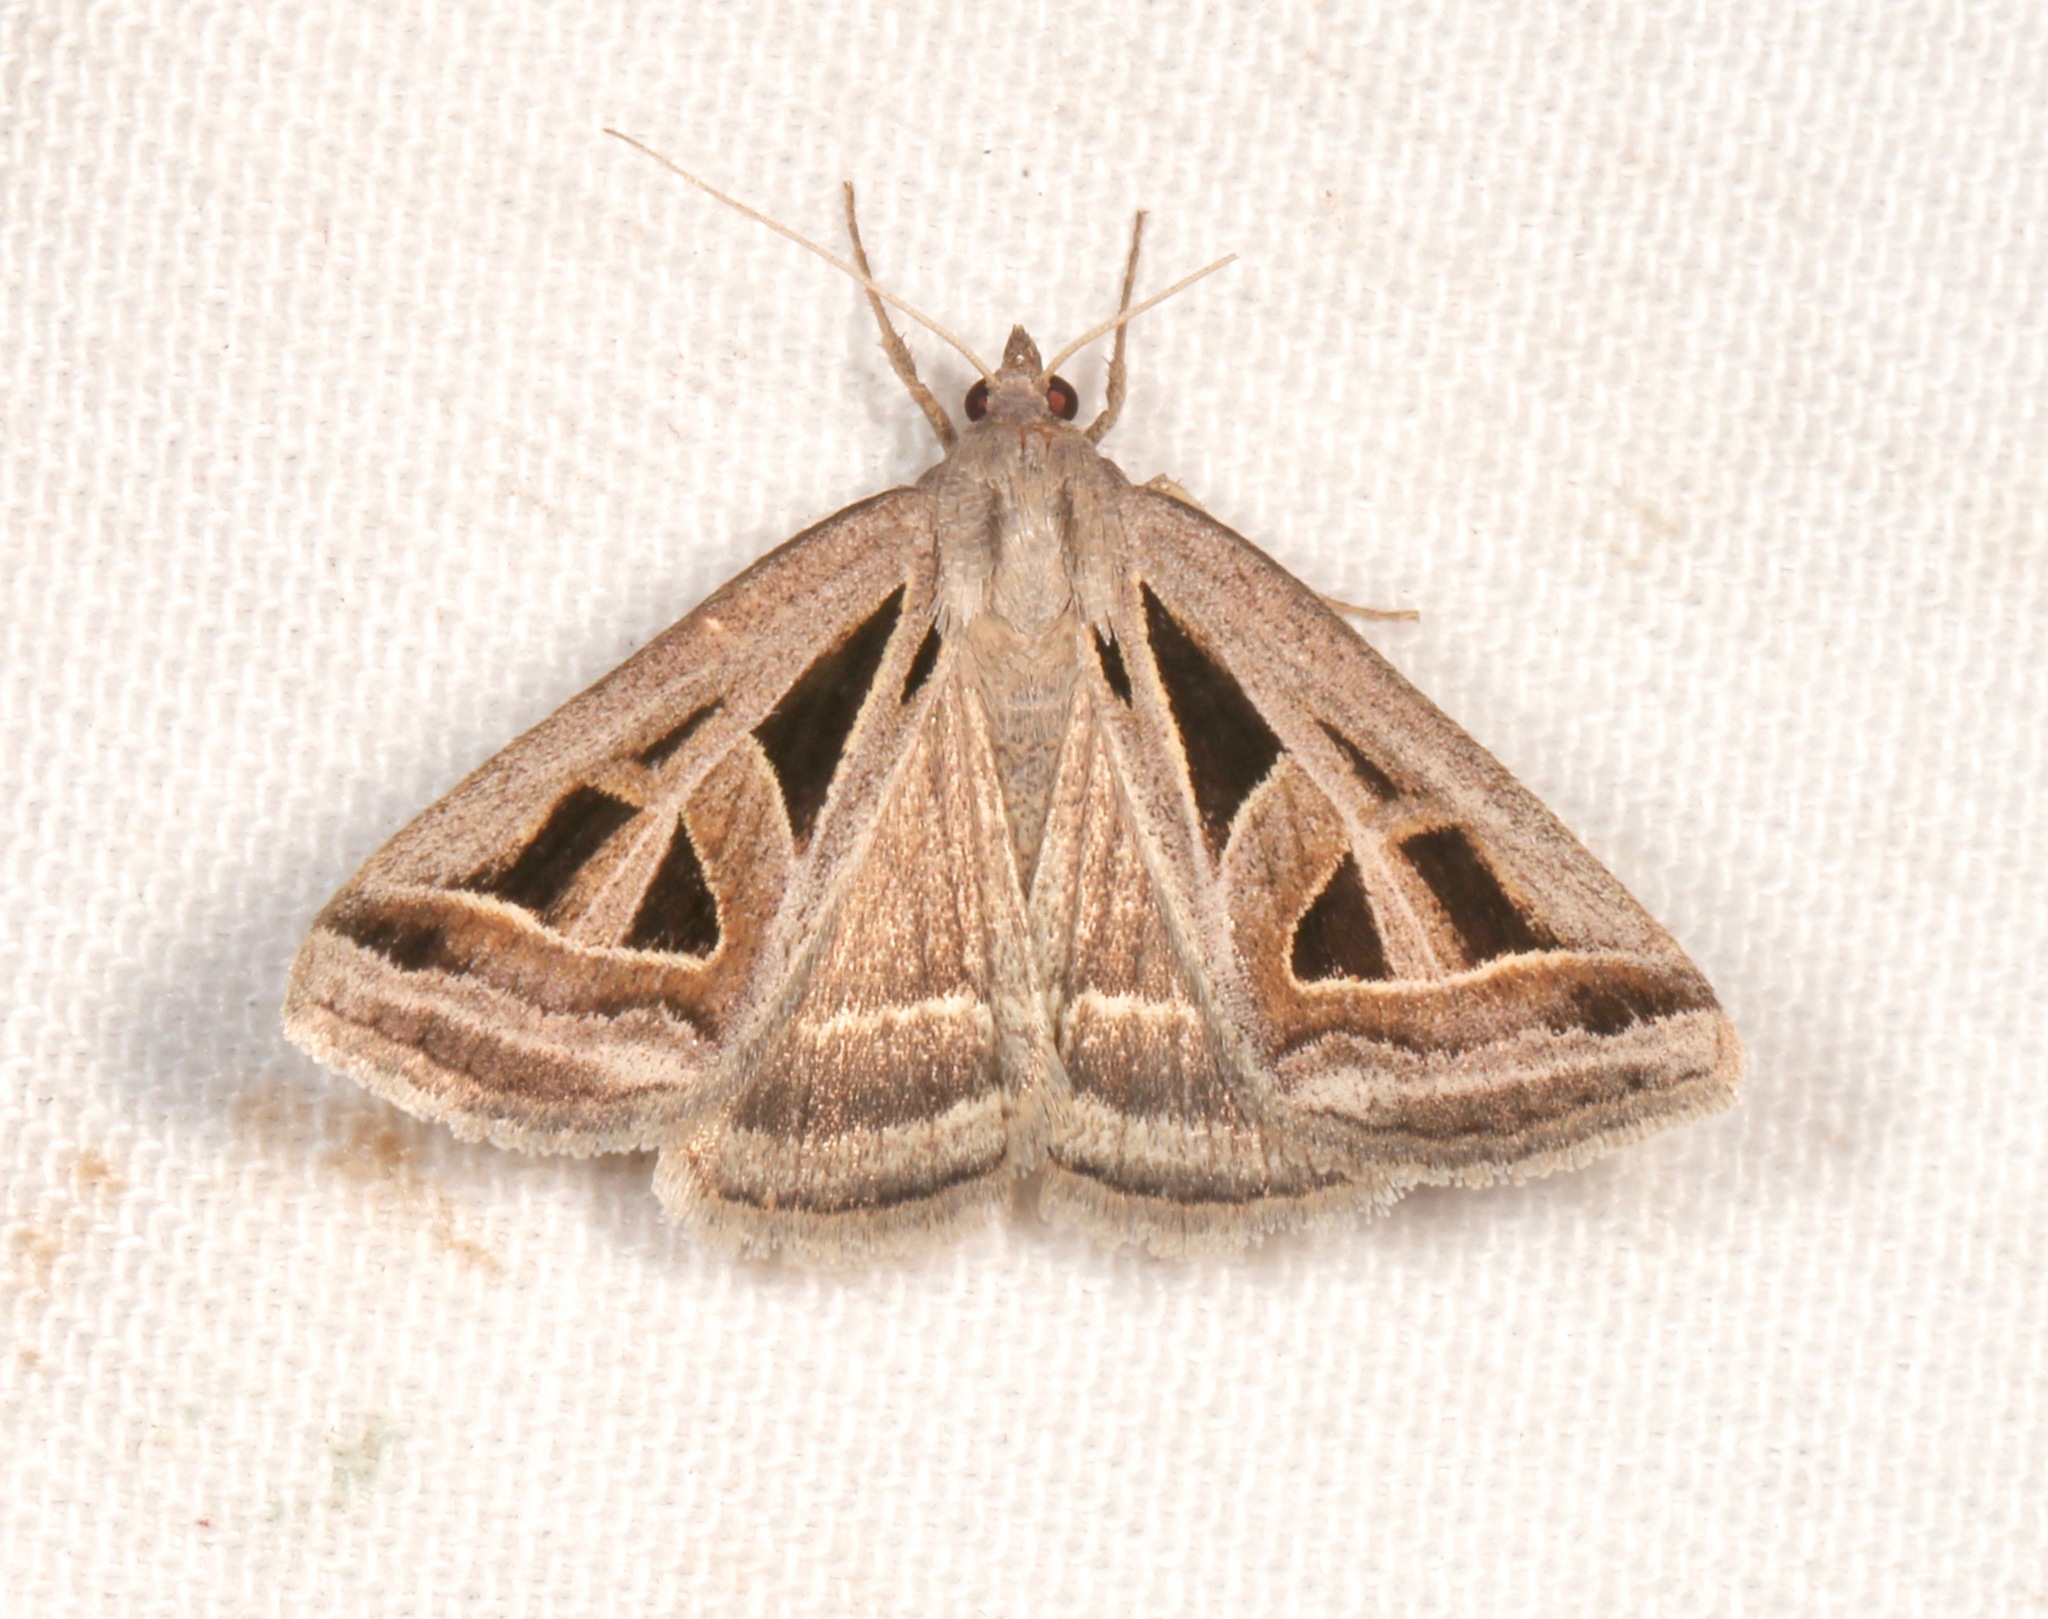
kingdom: Animalia
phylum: Arthropoda
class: Insecta
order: Lepidoptera
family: Erebidae
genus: Callistege
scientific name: Callistege diagonalis
